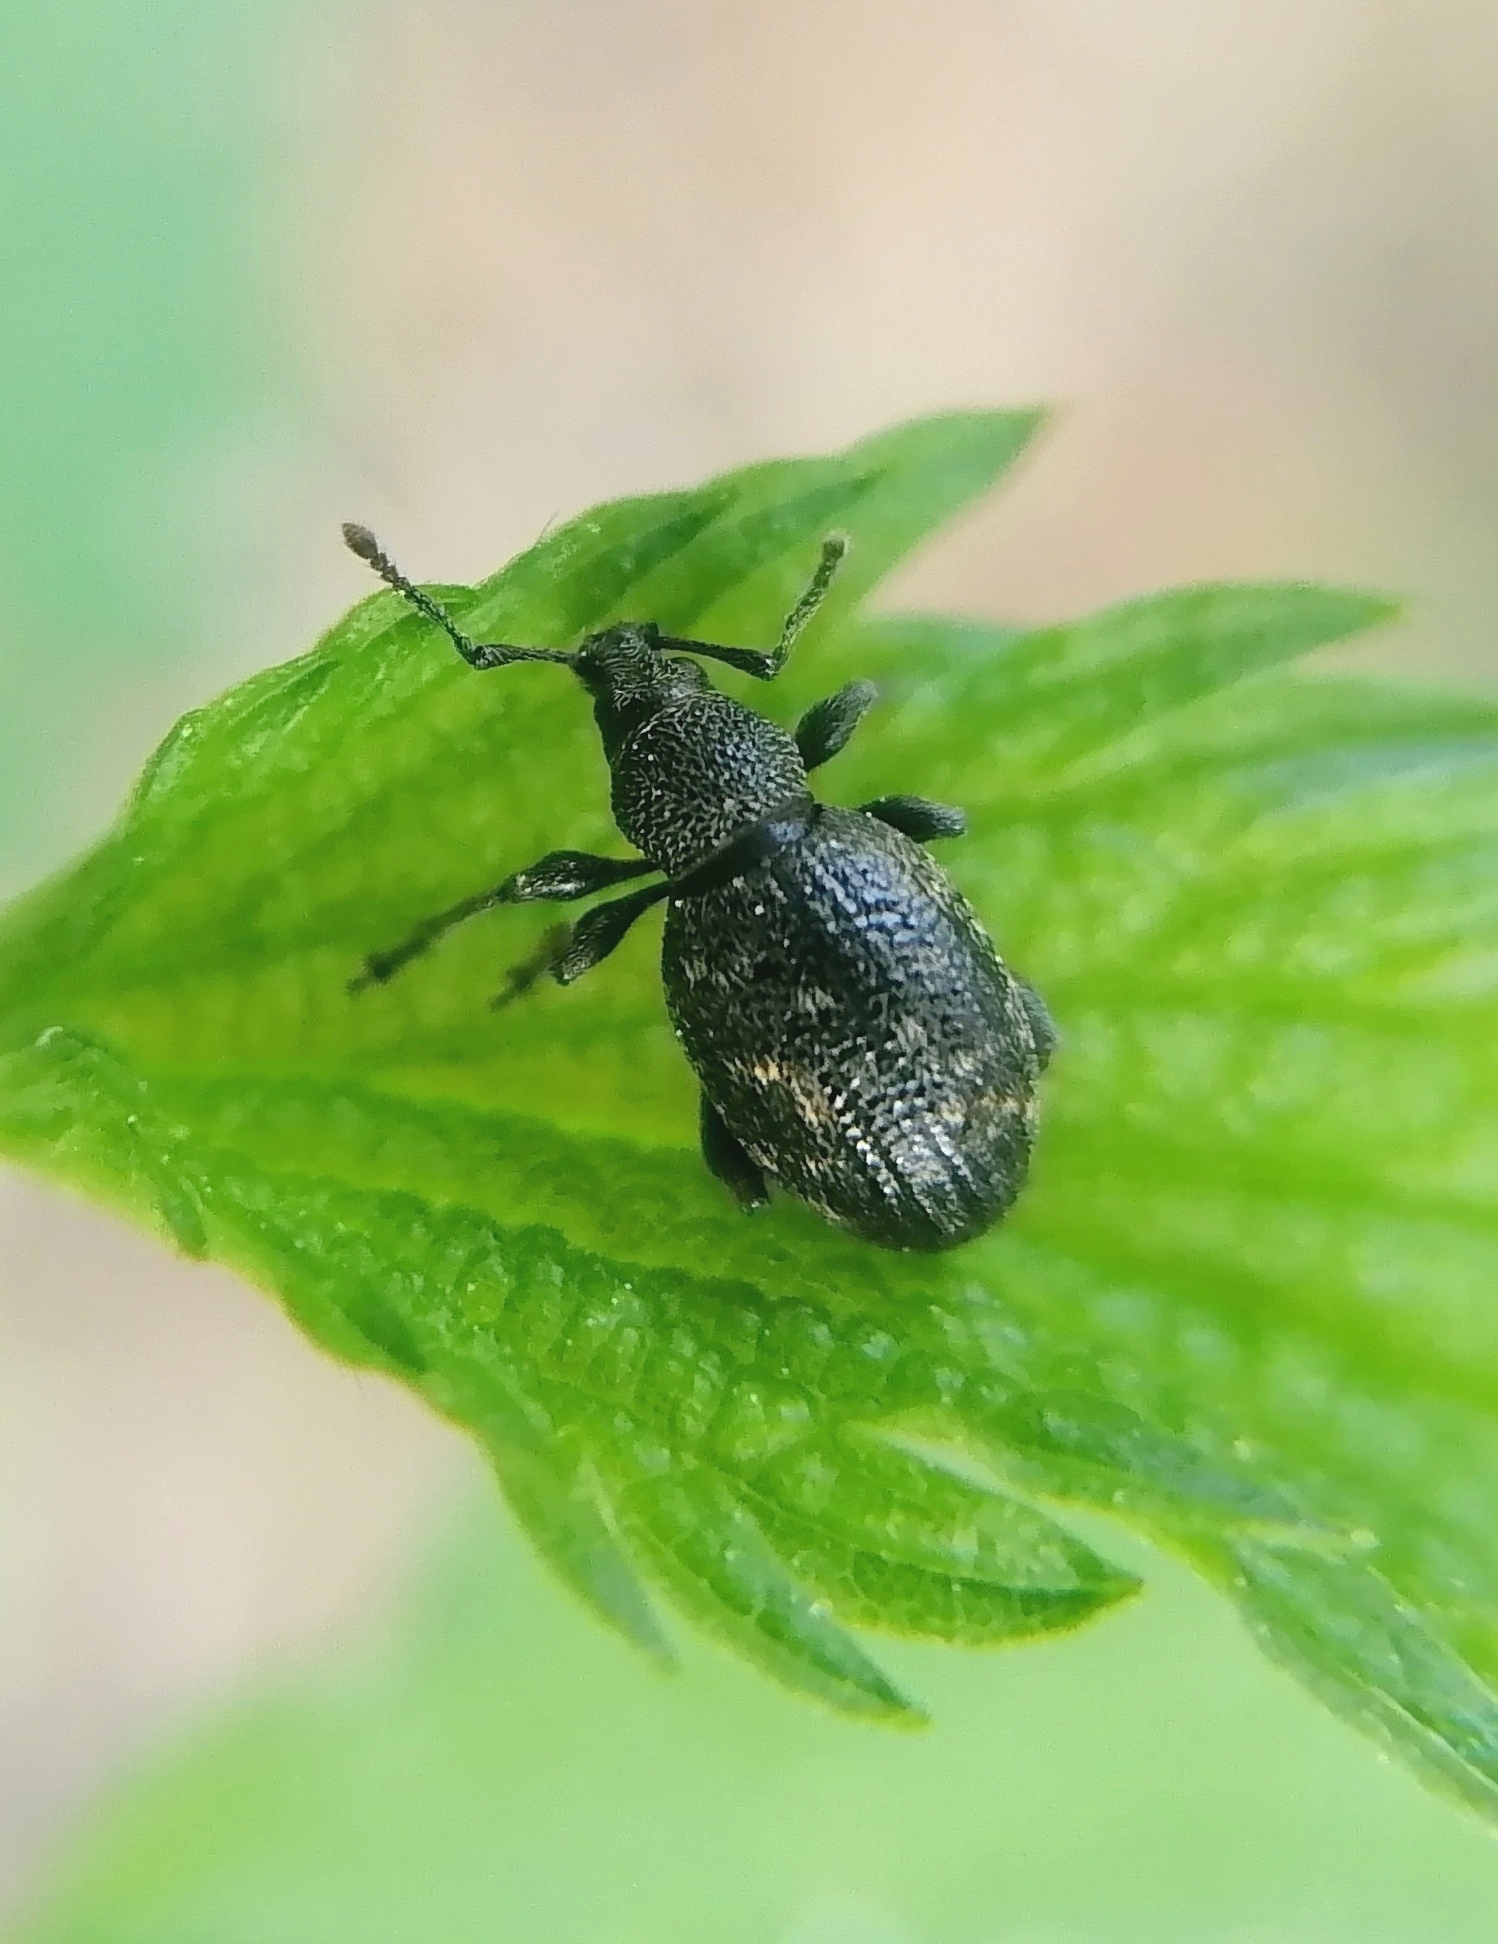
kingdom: Animalia
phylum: Arthropoda
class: Insecta
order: Coleoptera
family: Curculionidae
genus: Otiorhynchus
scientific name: Otiorhynchus tristis
